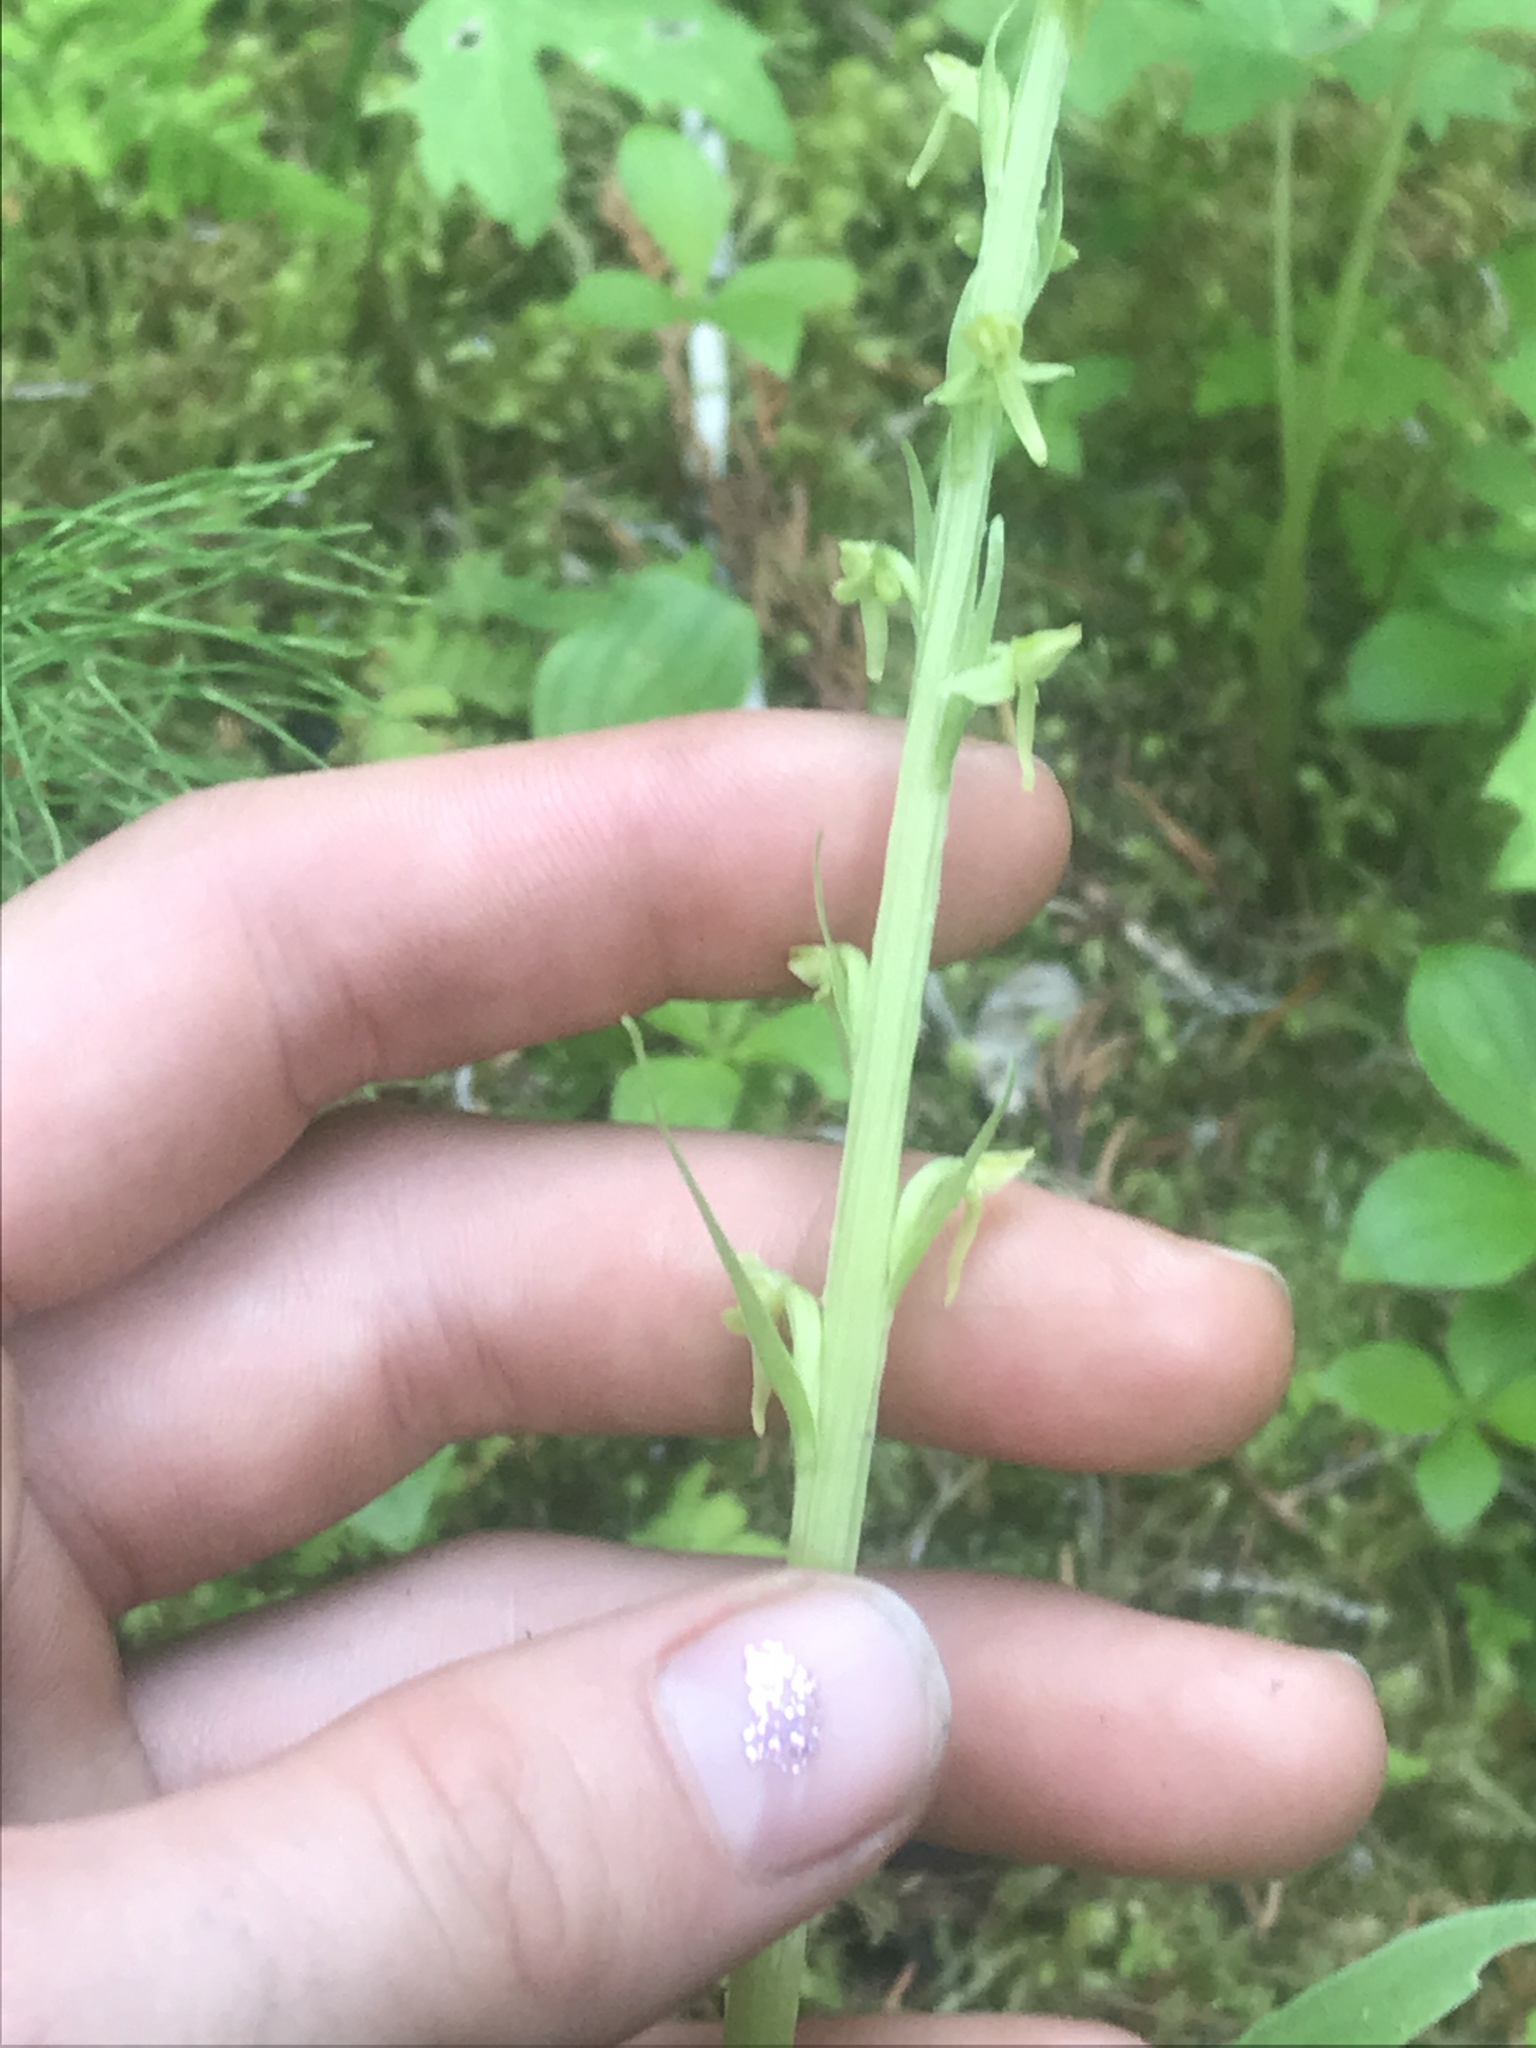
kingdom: Plantae
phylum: Tracheophyta
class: Liliopsida
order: Asparagales
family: Orchidaceae
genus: Platanthera
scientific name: Platanthera huronensis
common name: Fragrant green orchid
